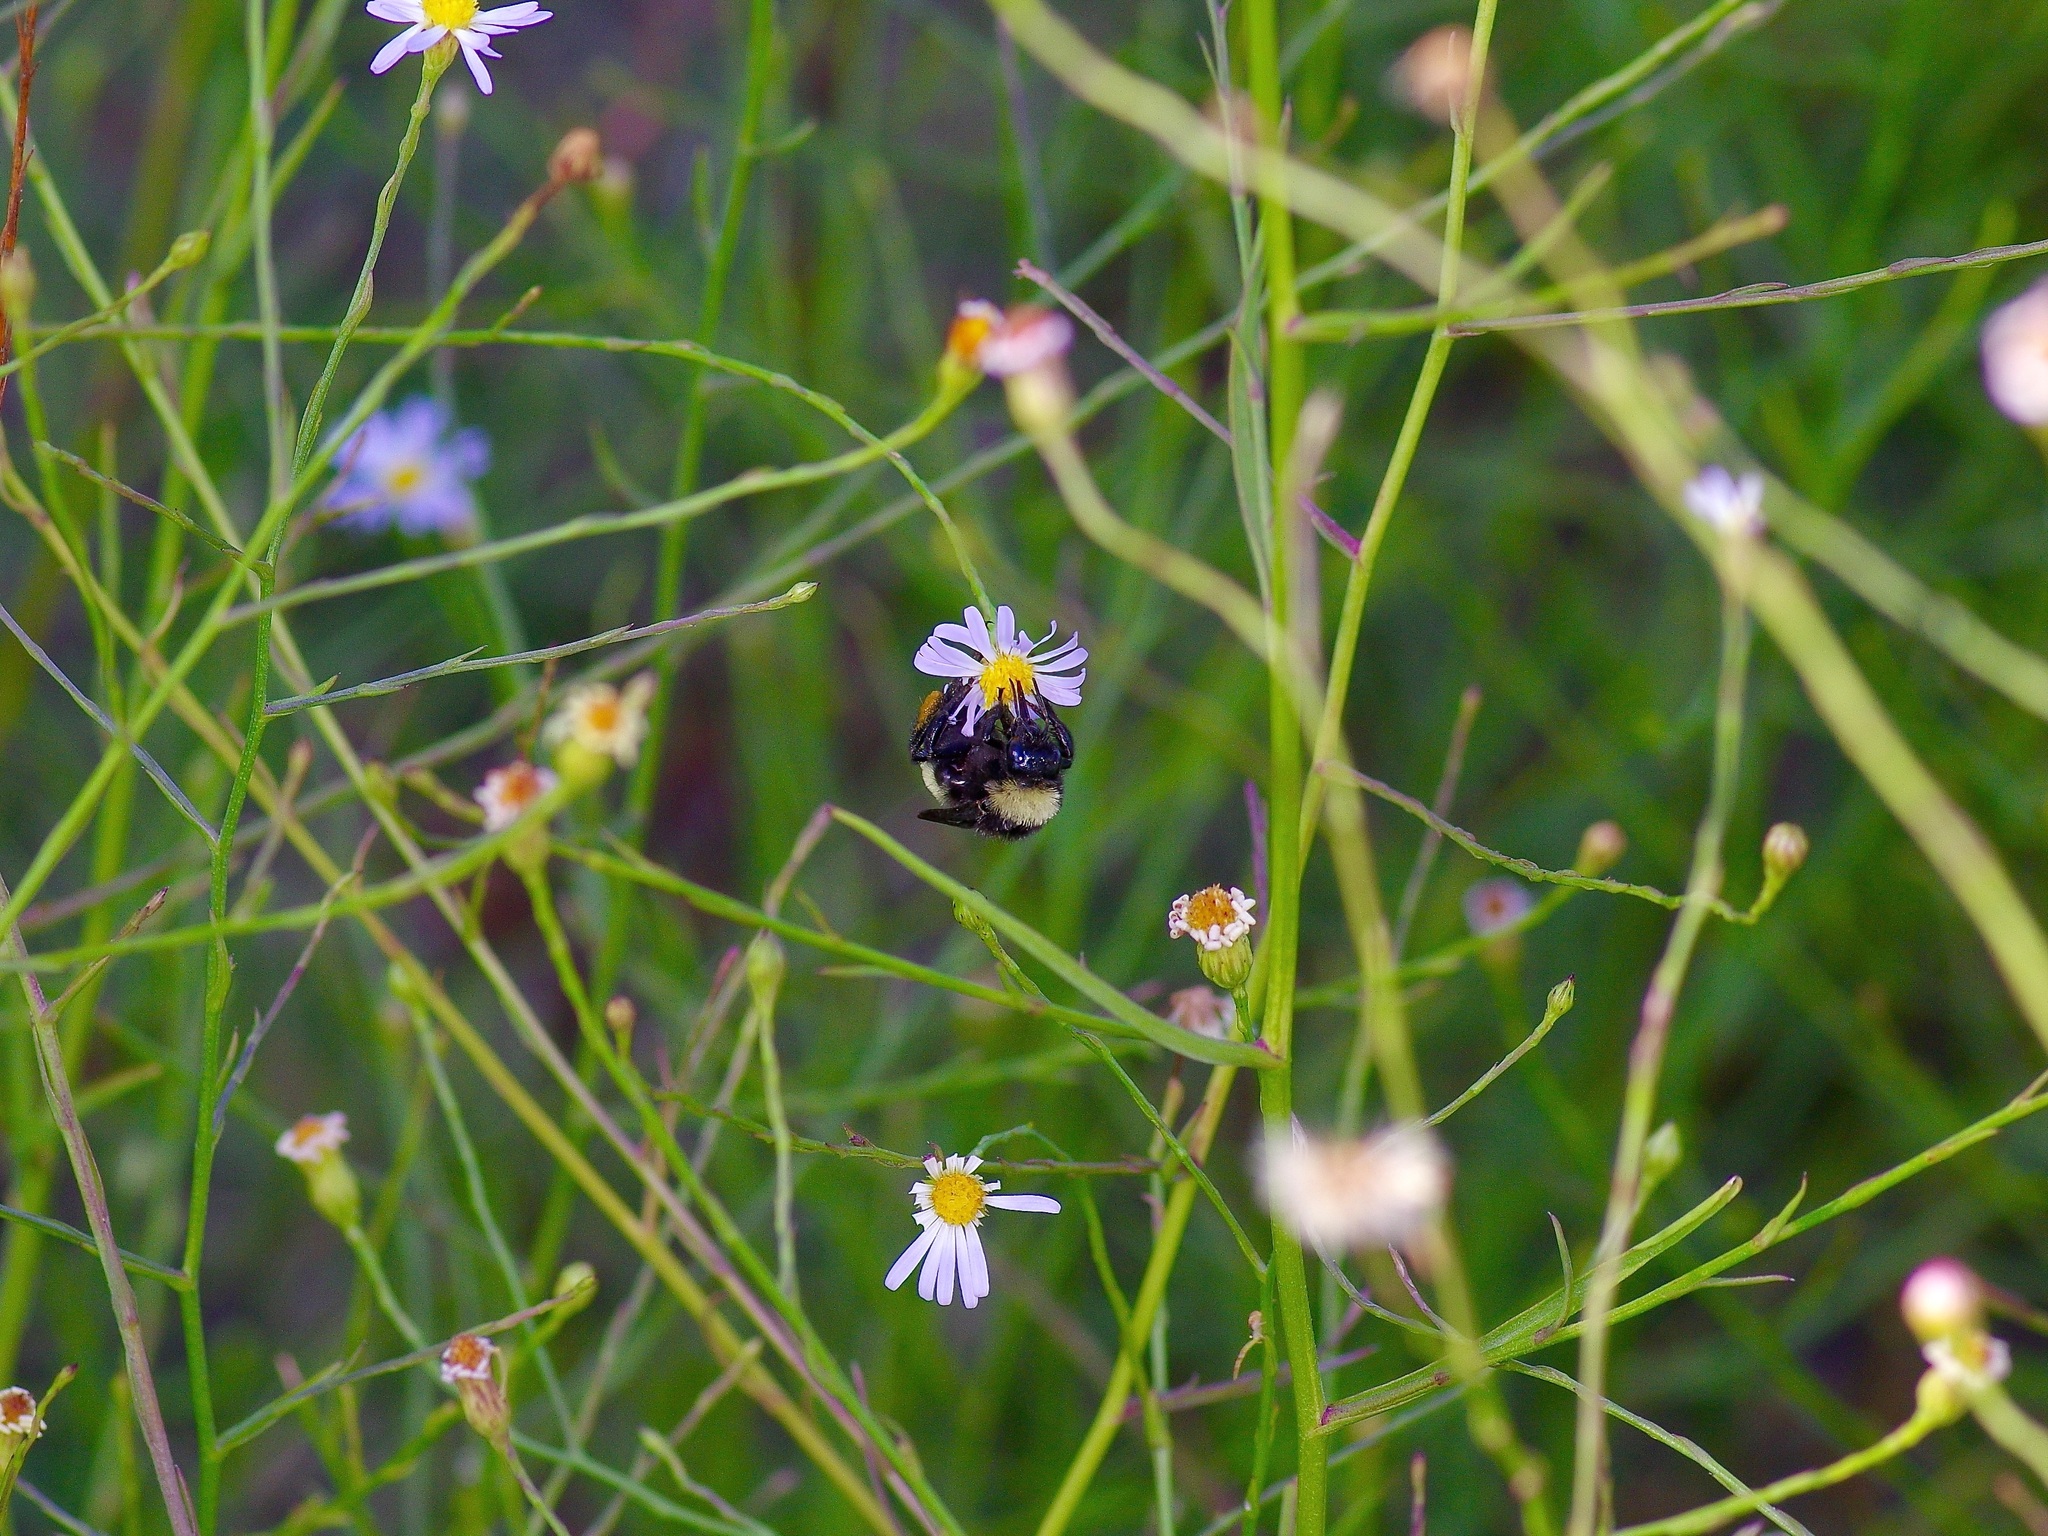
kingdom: Animalia
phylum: Arthropoda
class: Insecta
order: Hymenoptera
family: Apidae
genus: Bombus
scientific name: Bombus pensylvanicus
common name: Bumble bee
